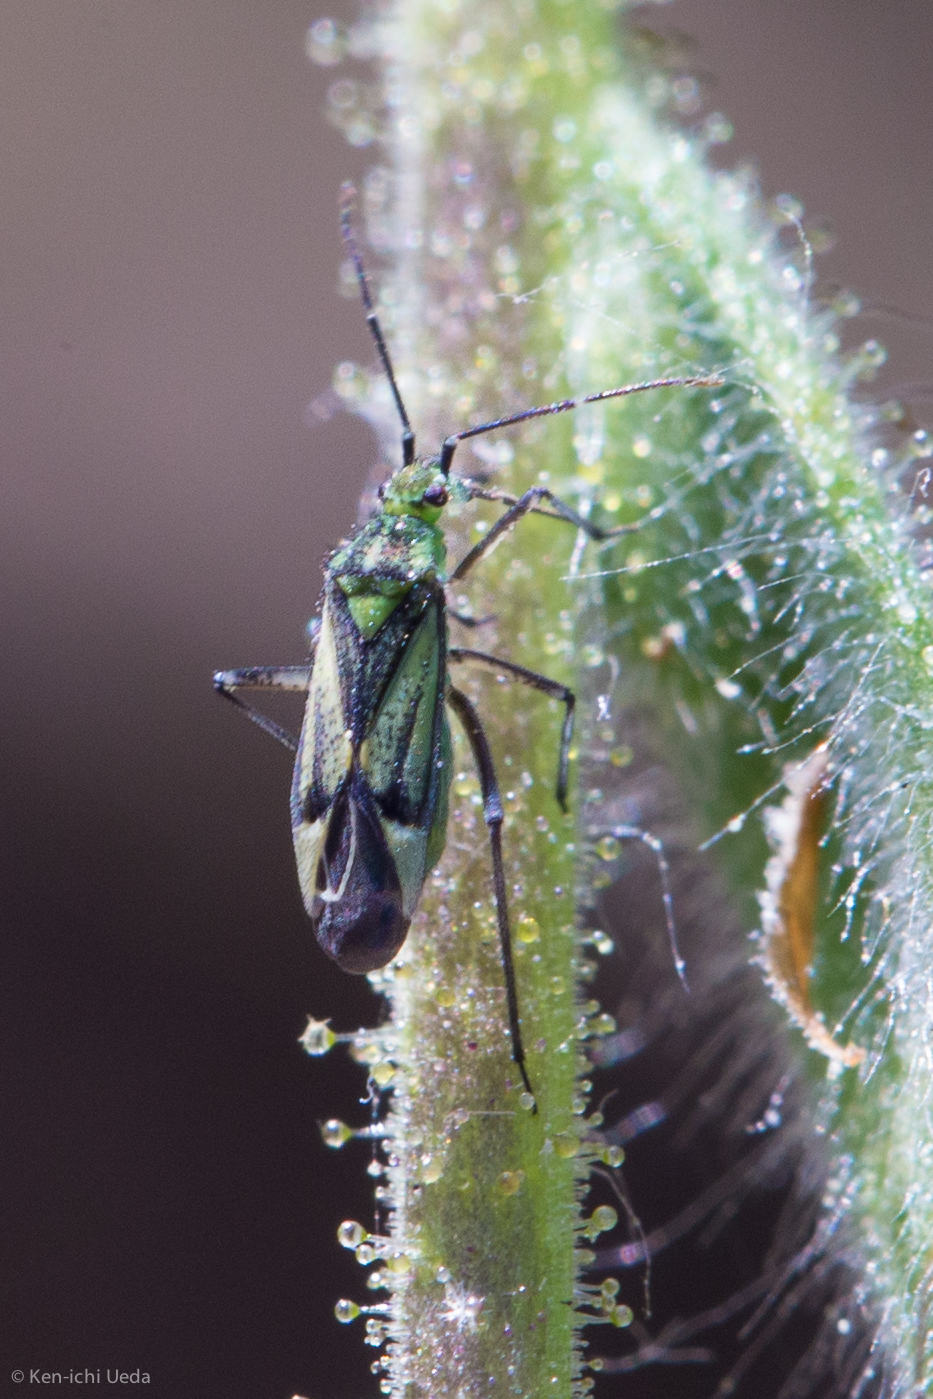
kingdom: Animalia
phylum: Arthropoda
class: Insecta
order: Hemiptera
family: Miridae
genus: Macrotylus
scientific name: Macrotylus intermedius
